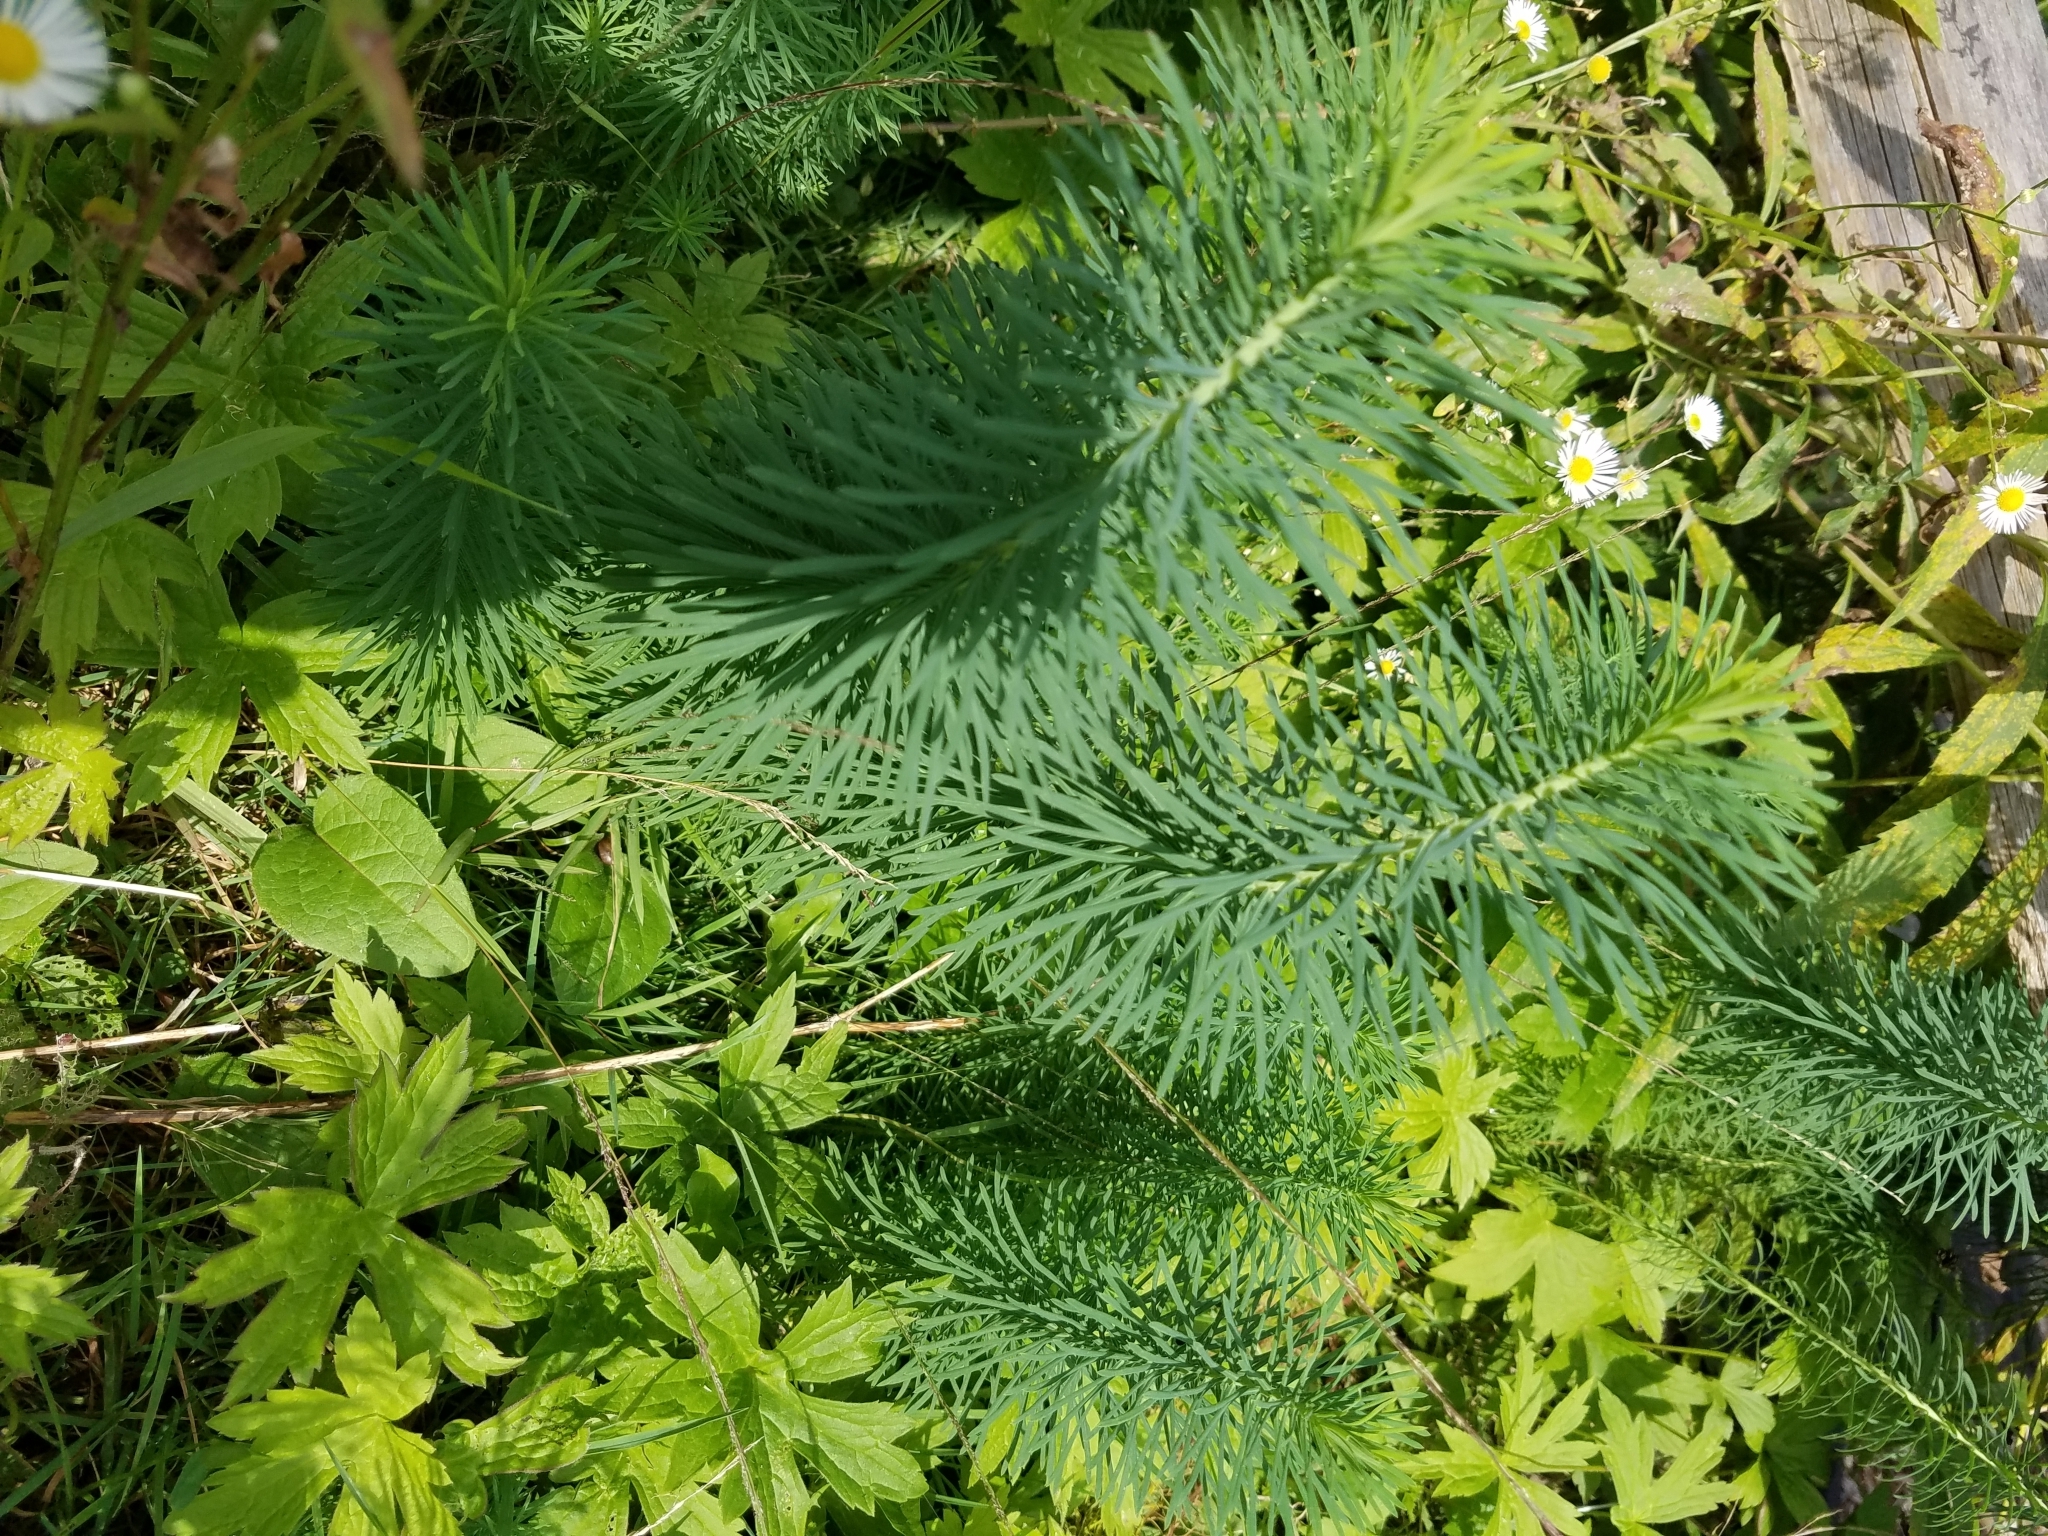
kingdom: Plantae
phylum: Tracheophyta
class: Magnoliopsida
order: Malpighiales
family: Euphorbiaceae
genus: Euphorbia
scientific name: Euphorbia cyparissias
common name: Cypress spurge
